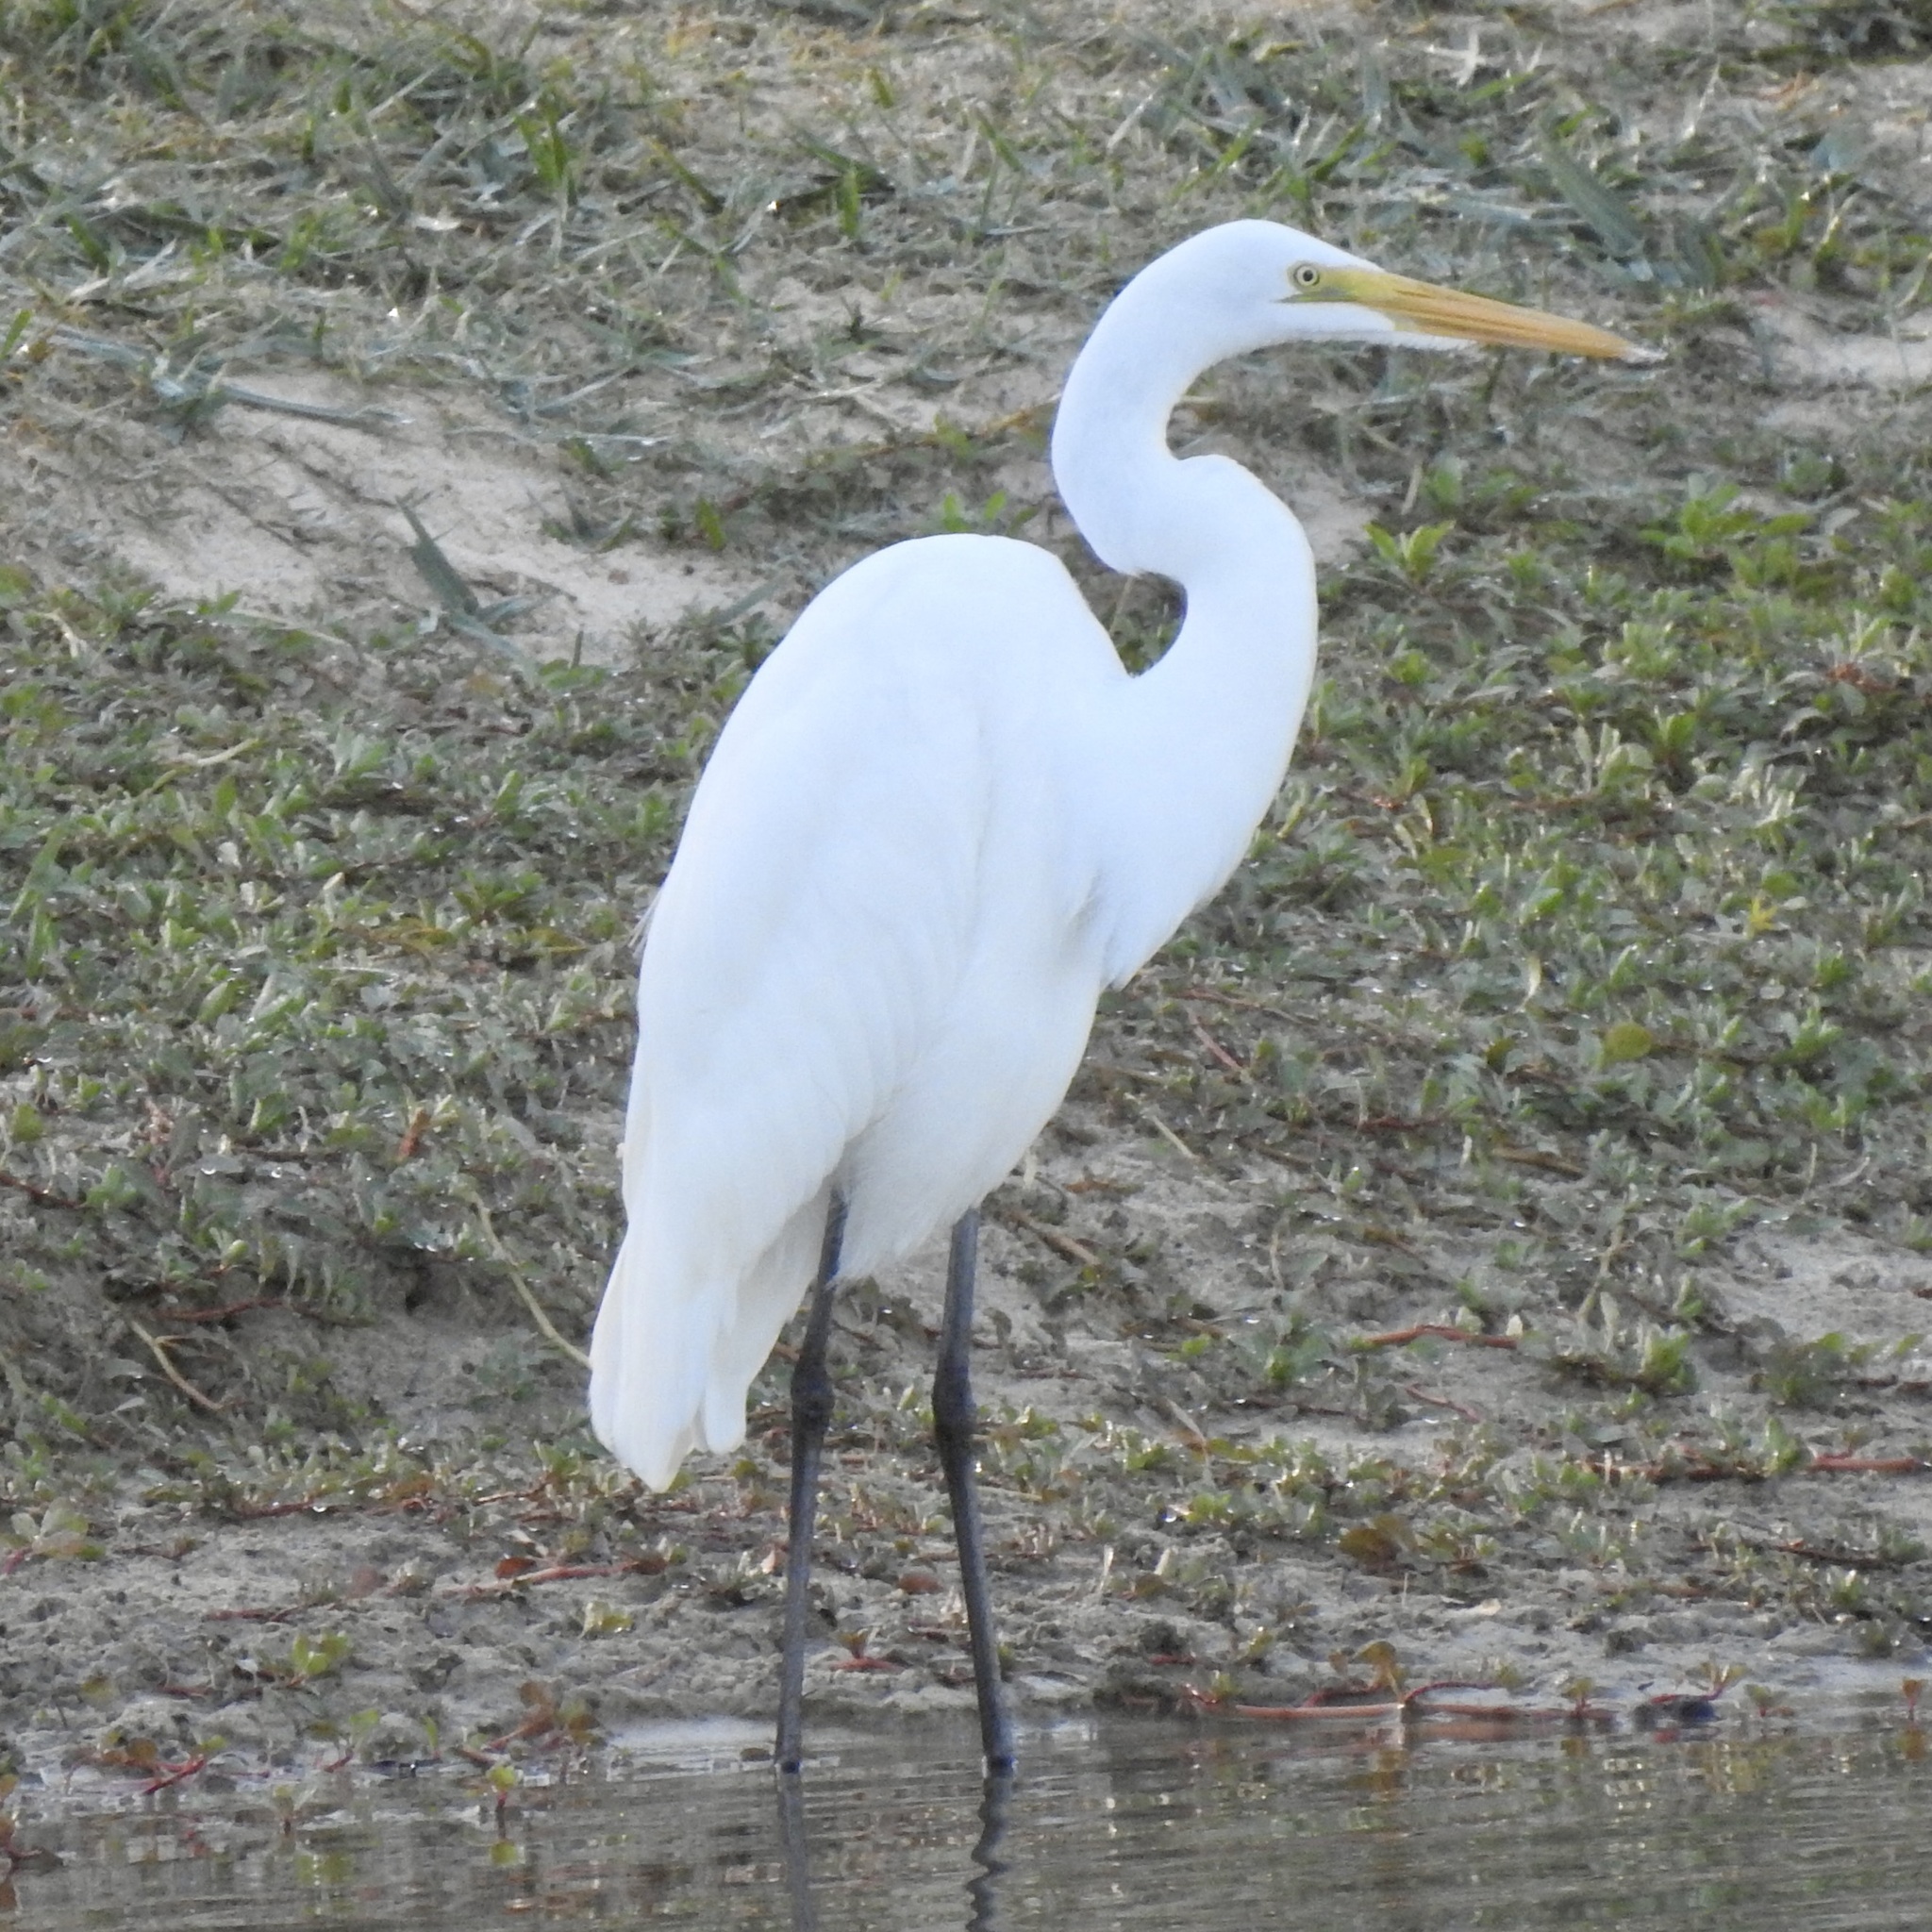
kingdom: Animalia
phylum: Chordata
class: Aves
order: Pelecaniformes
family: Ardeidae
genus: Ardea
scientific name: Ardea alba
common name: Great egret
